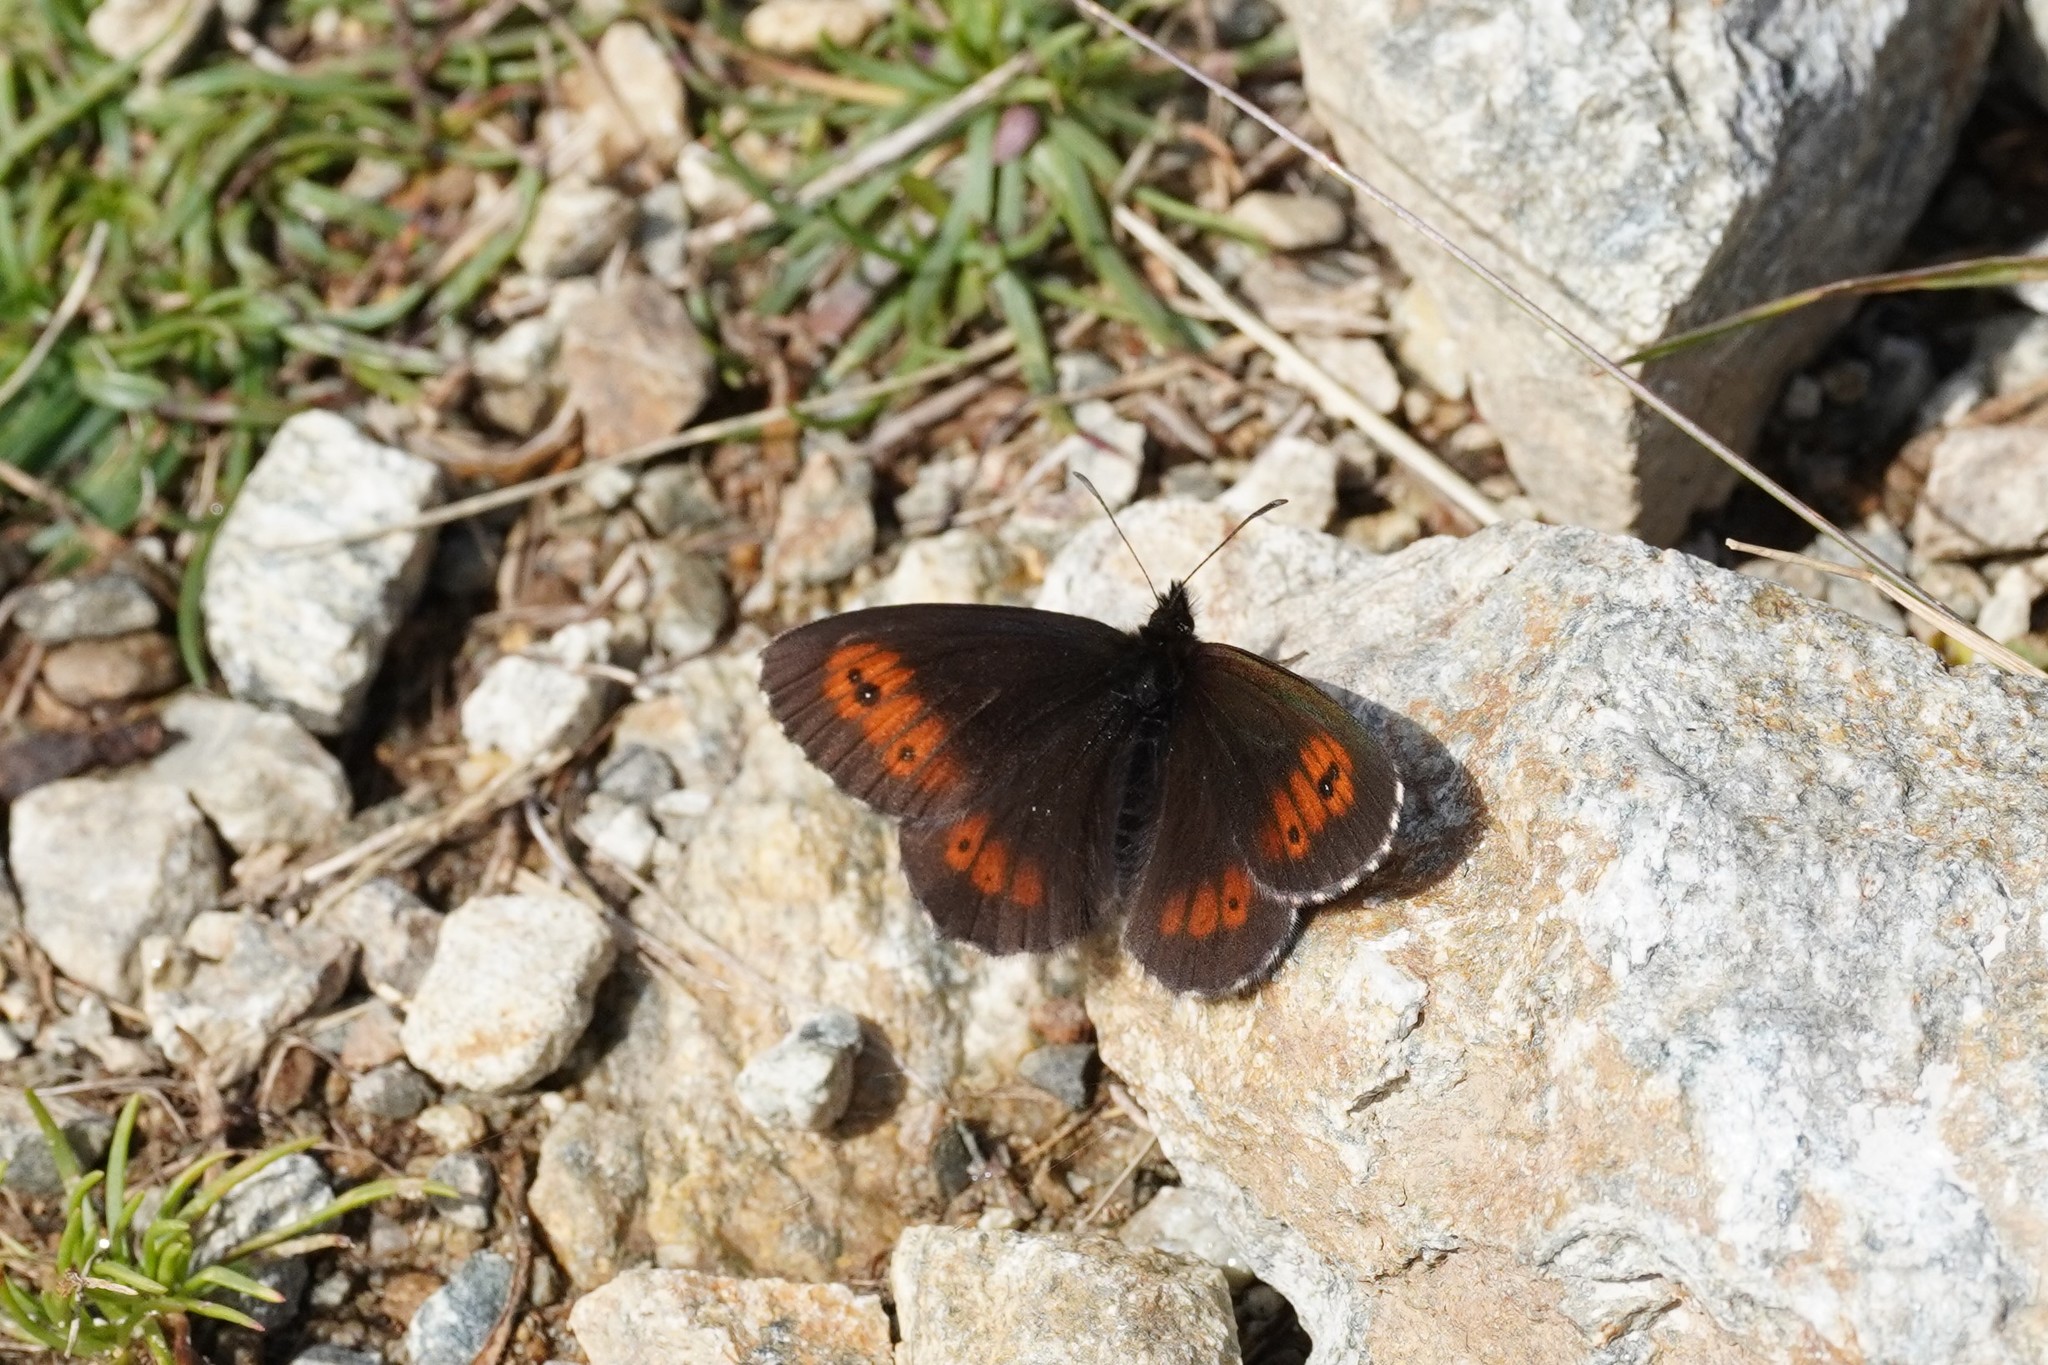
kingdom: Animalia
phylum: Arthropoda
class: Insecta
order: Lepidoptera
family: Nymphalidae
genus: Erebia
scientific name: Erebia euryale
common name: Large ringlet
